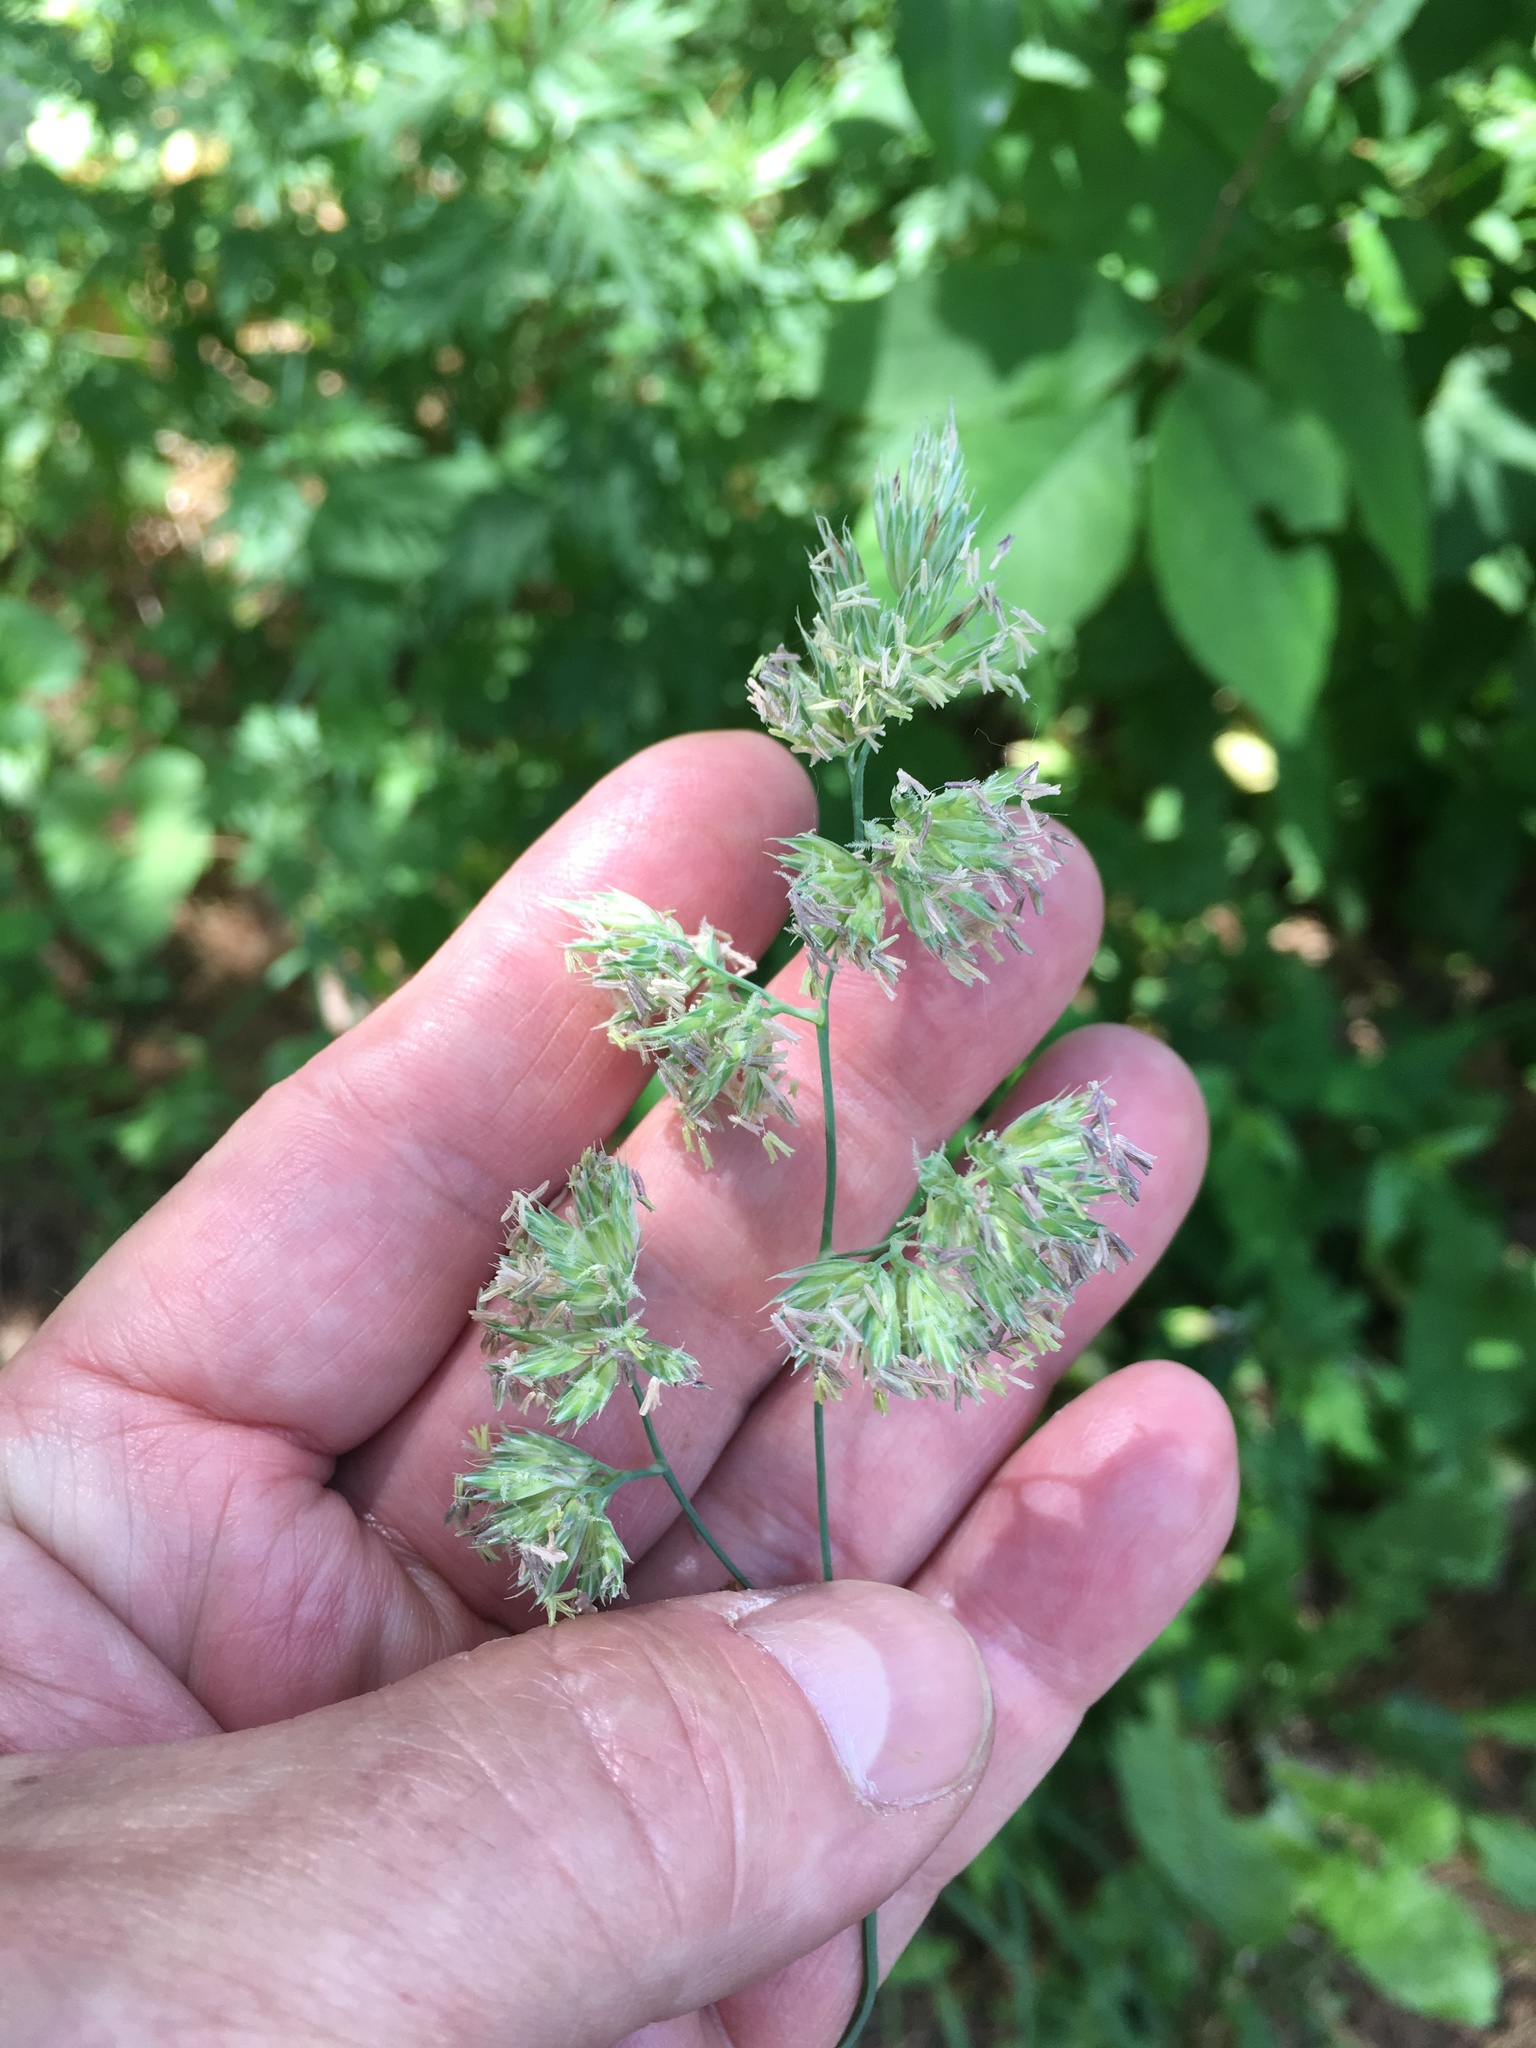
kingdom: Plantae
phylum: Tracheophyta
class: Liliopsida
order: Poales
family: Poaceae
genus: Dactylis
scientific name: Dactylis glomerata
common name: Orchardgrass
